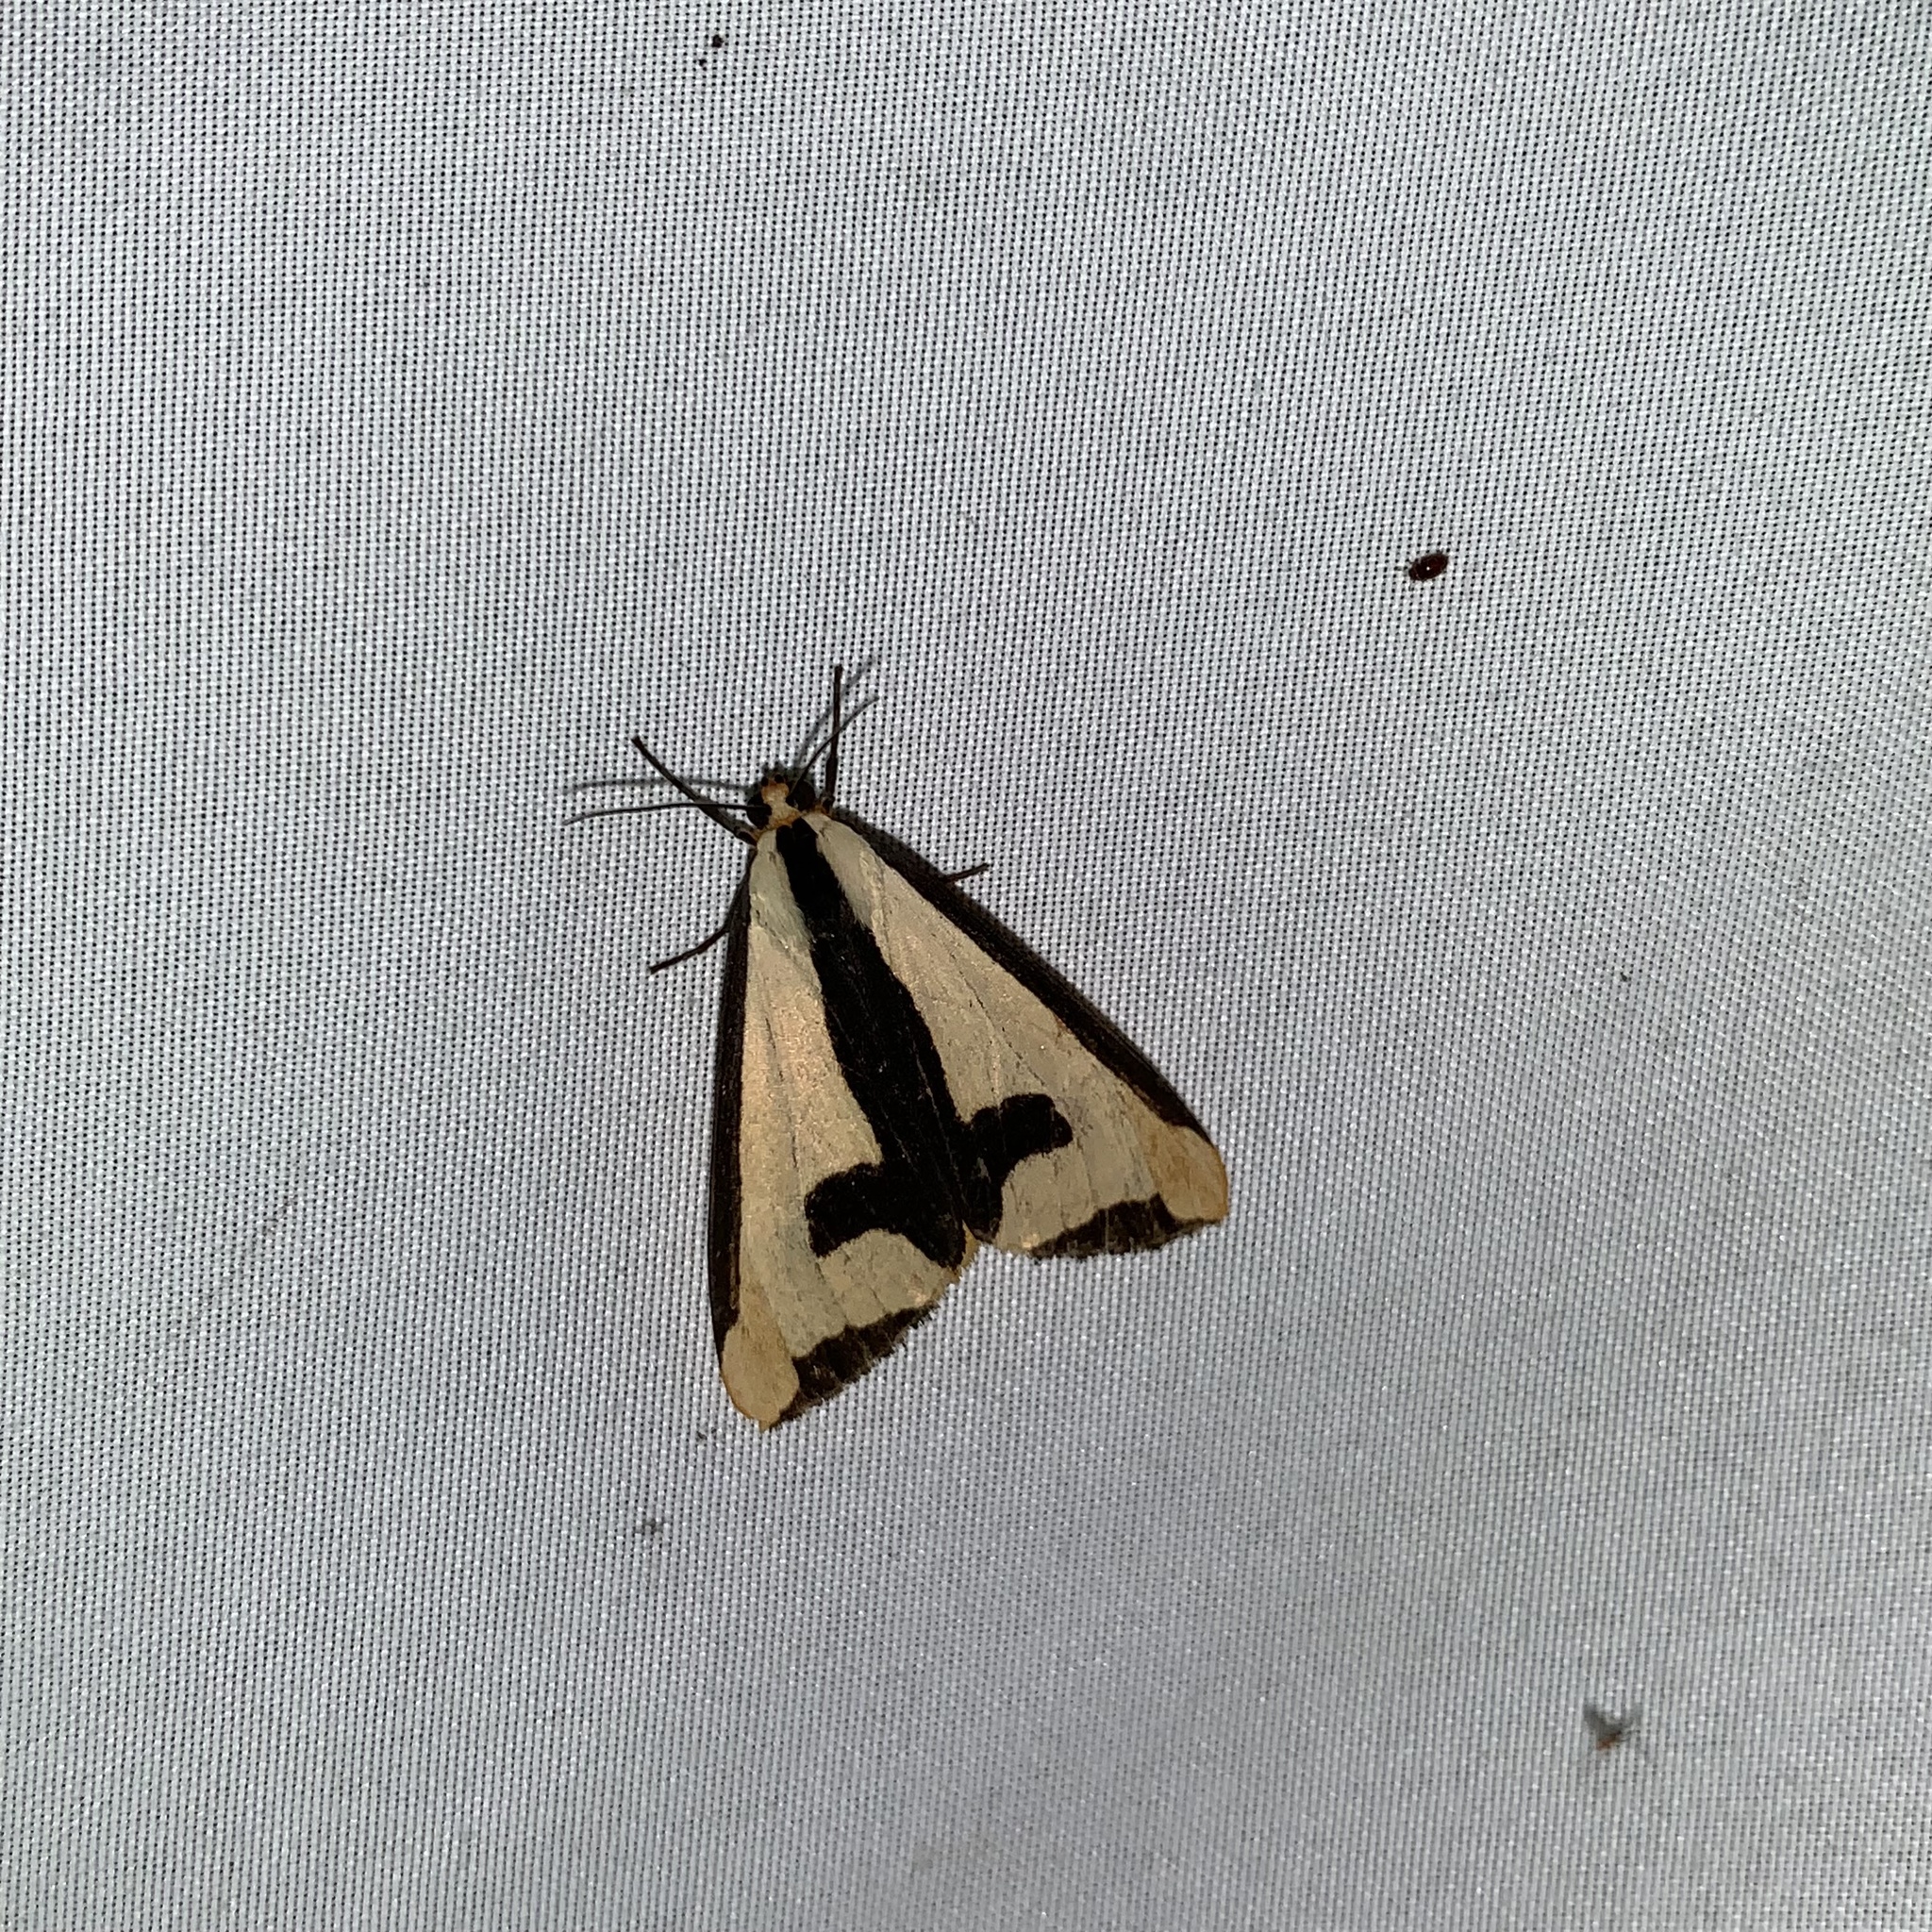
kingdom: Animalia
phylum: Arthropoda
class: Insecta
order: Lepidoptera
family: Erebidae
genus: Haploa
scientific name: Haploa clymene
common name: Clymene moth
